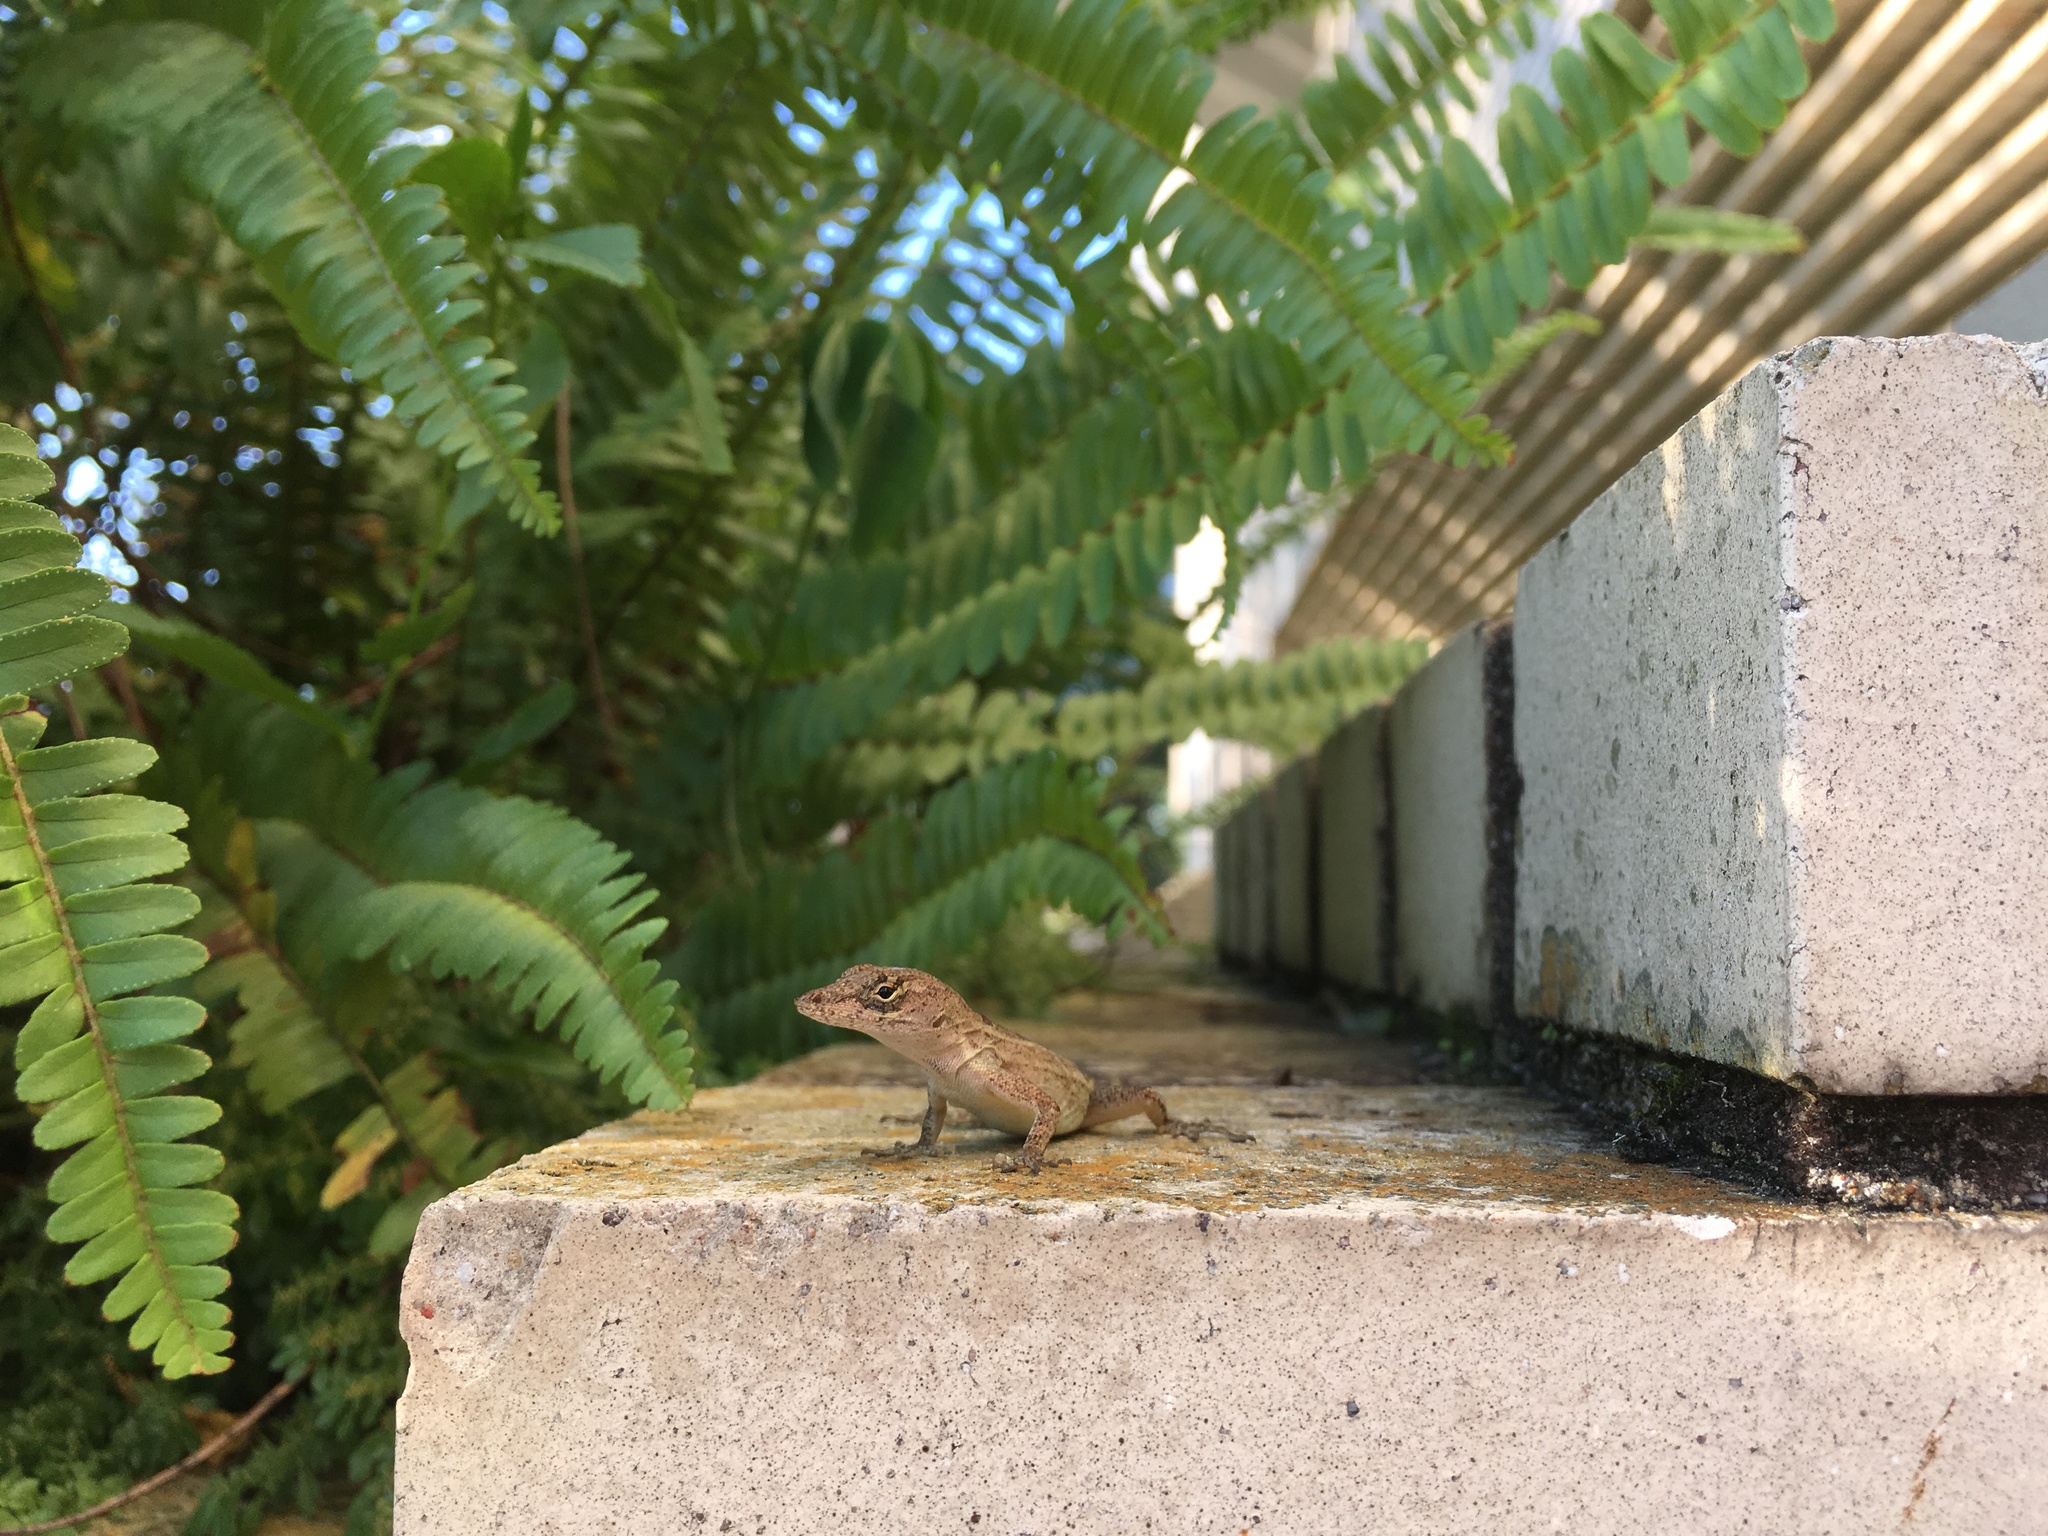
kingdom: Animalia
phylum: Chordata
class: Squamata
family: Dactyloidae
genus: Anolis
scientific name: Anolis sagrei
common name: Brown anole
